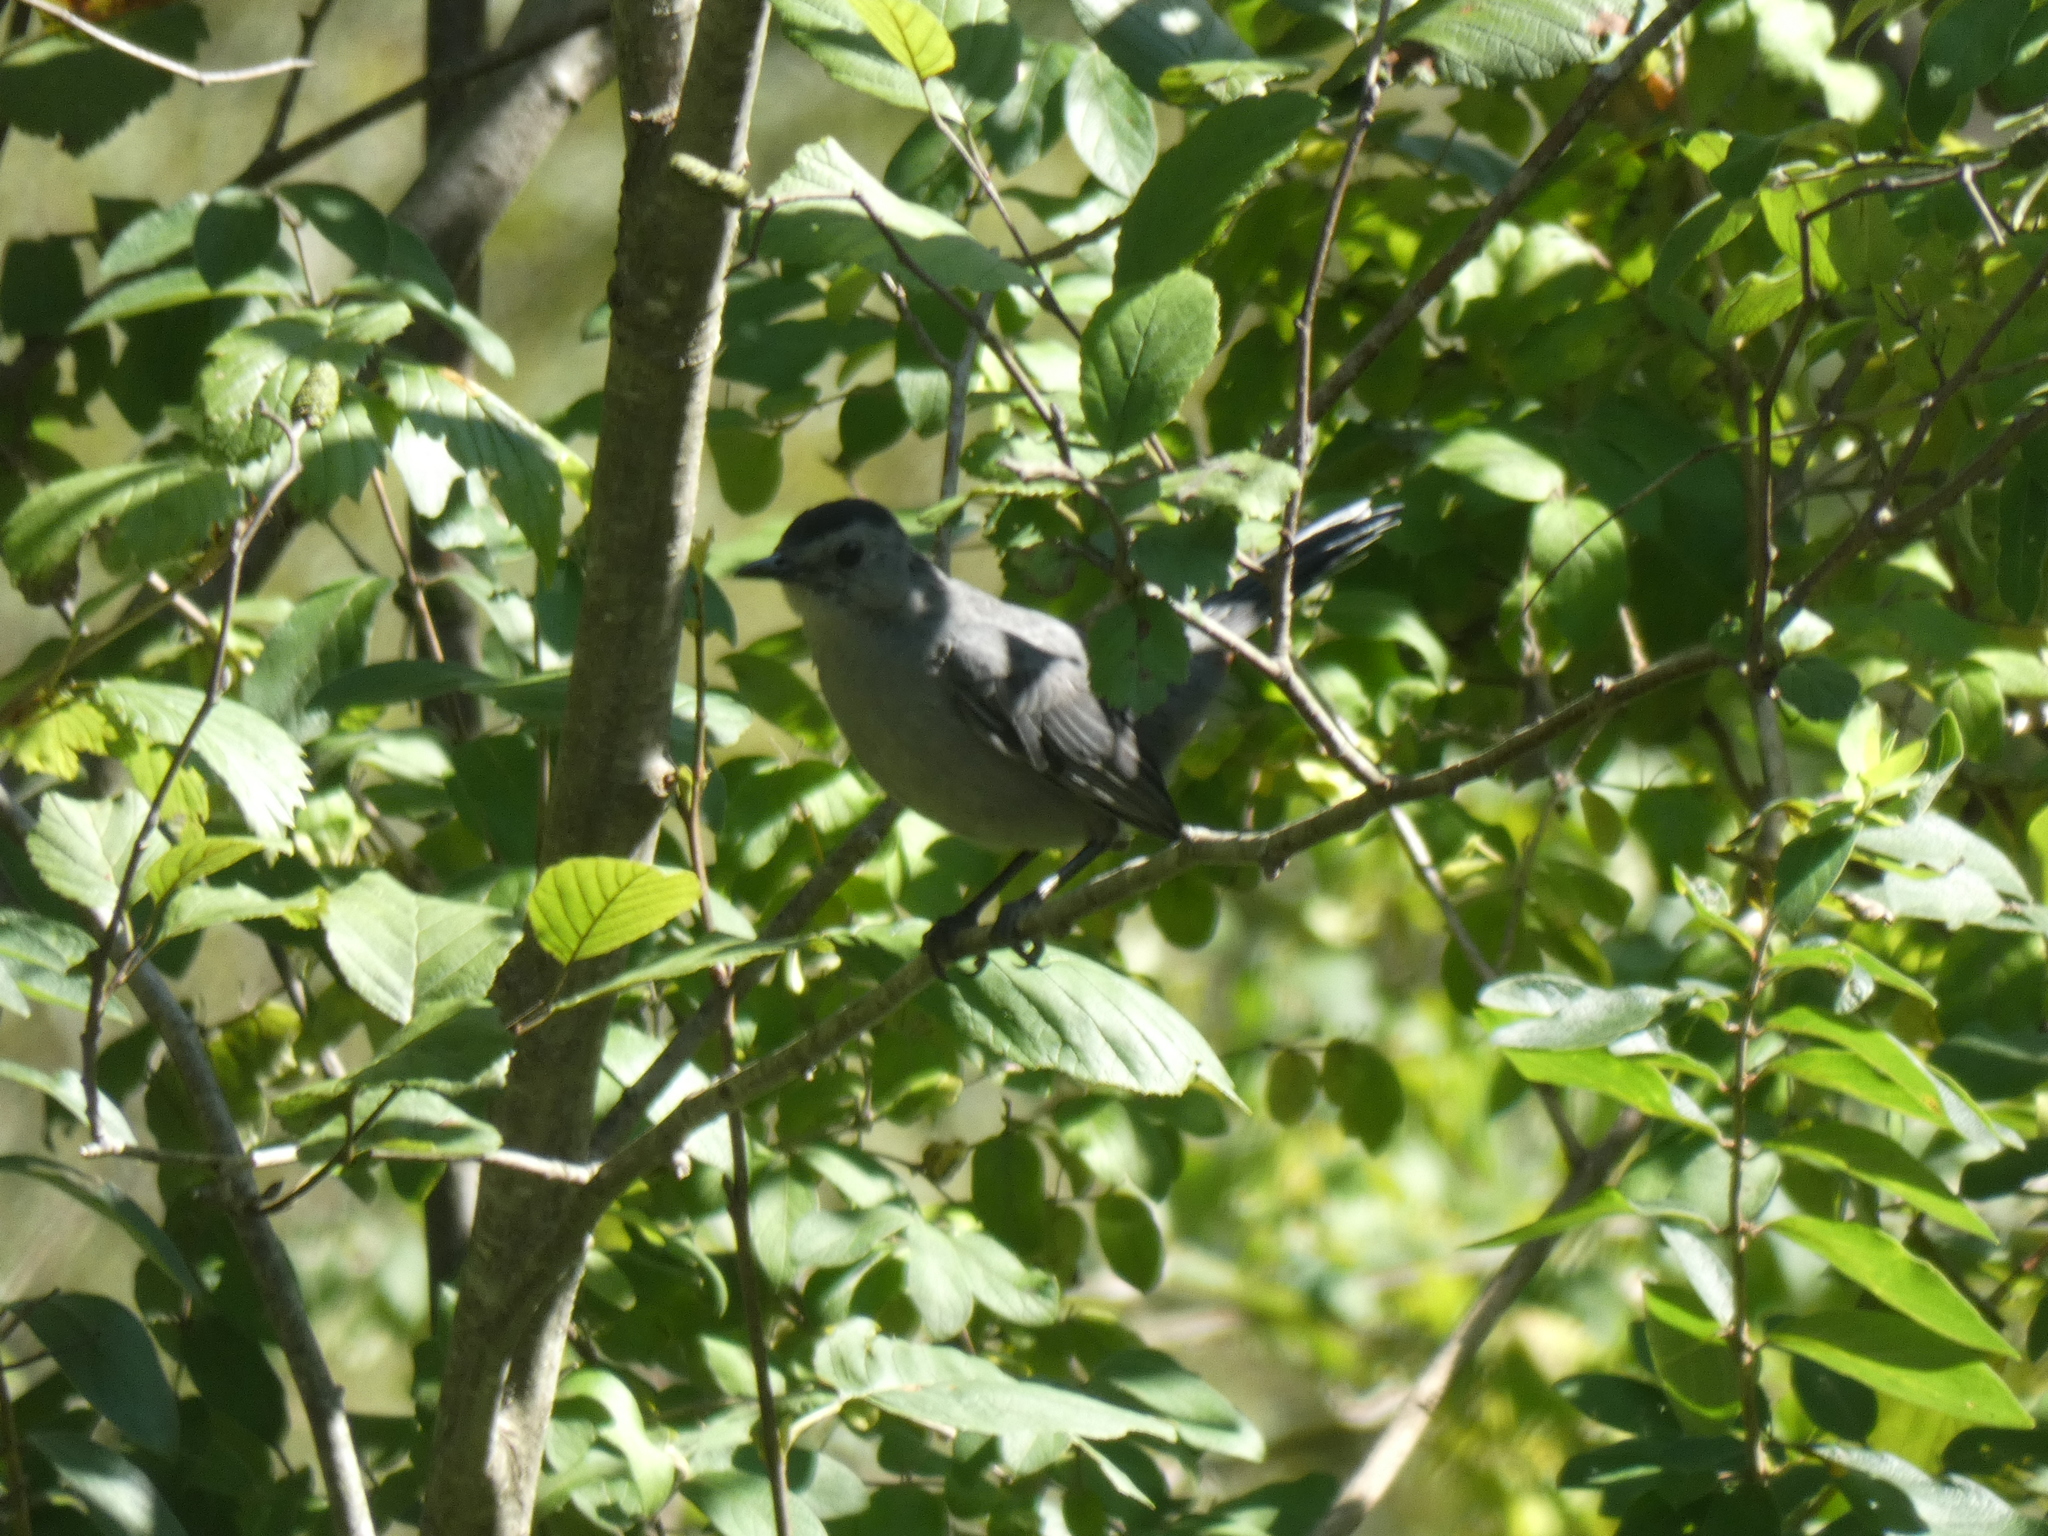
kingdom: Animalia
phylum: Chordata
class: Aves
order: Passeriformes
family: Mimidae
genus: Dumetella
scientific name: Dumetella carolinensis
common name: Gray catbird
